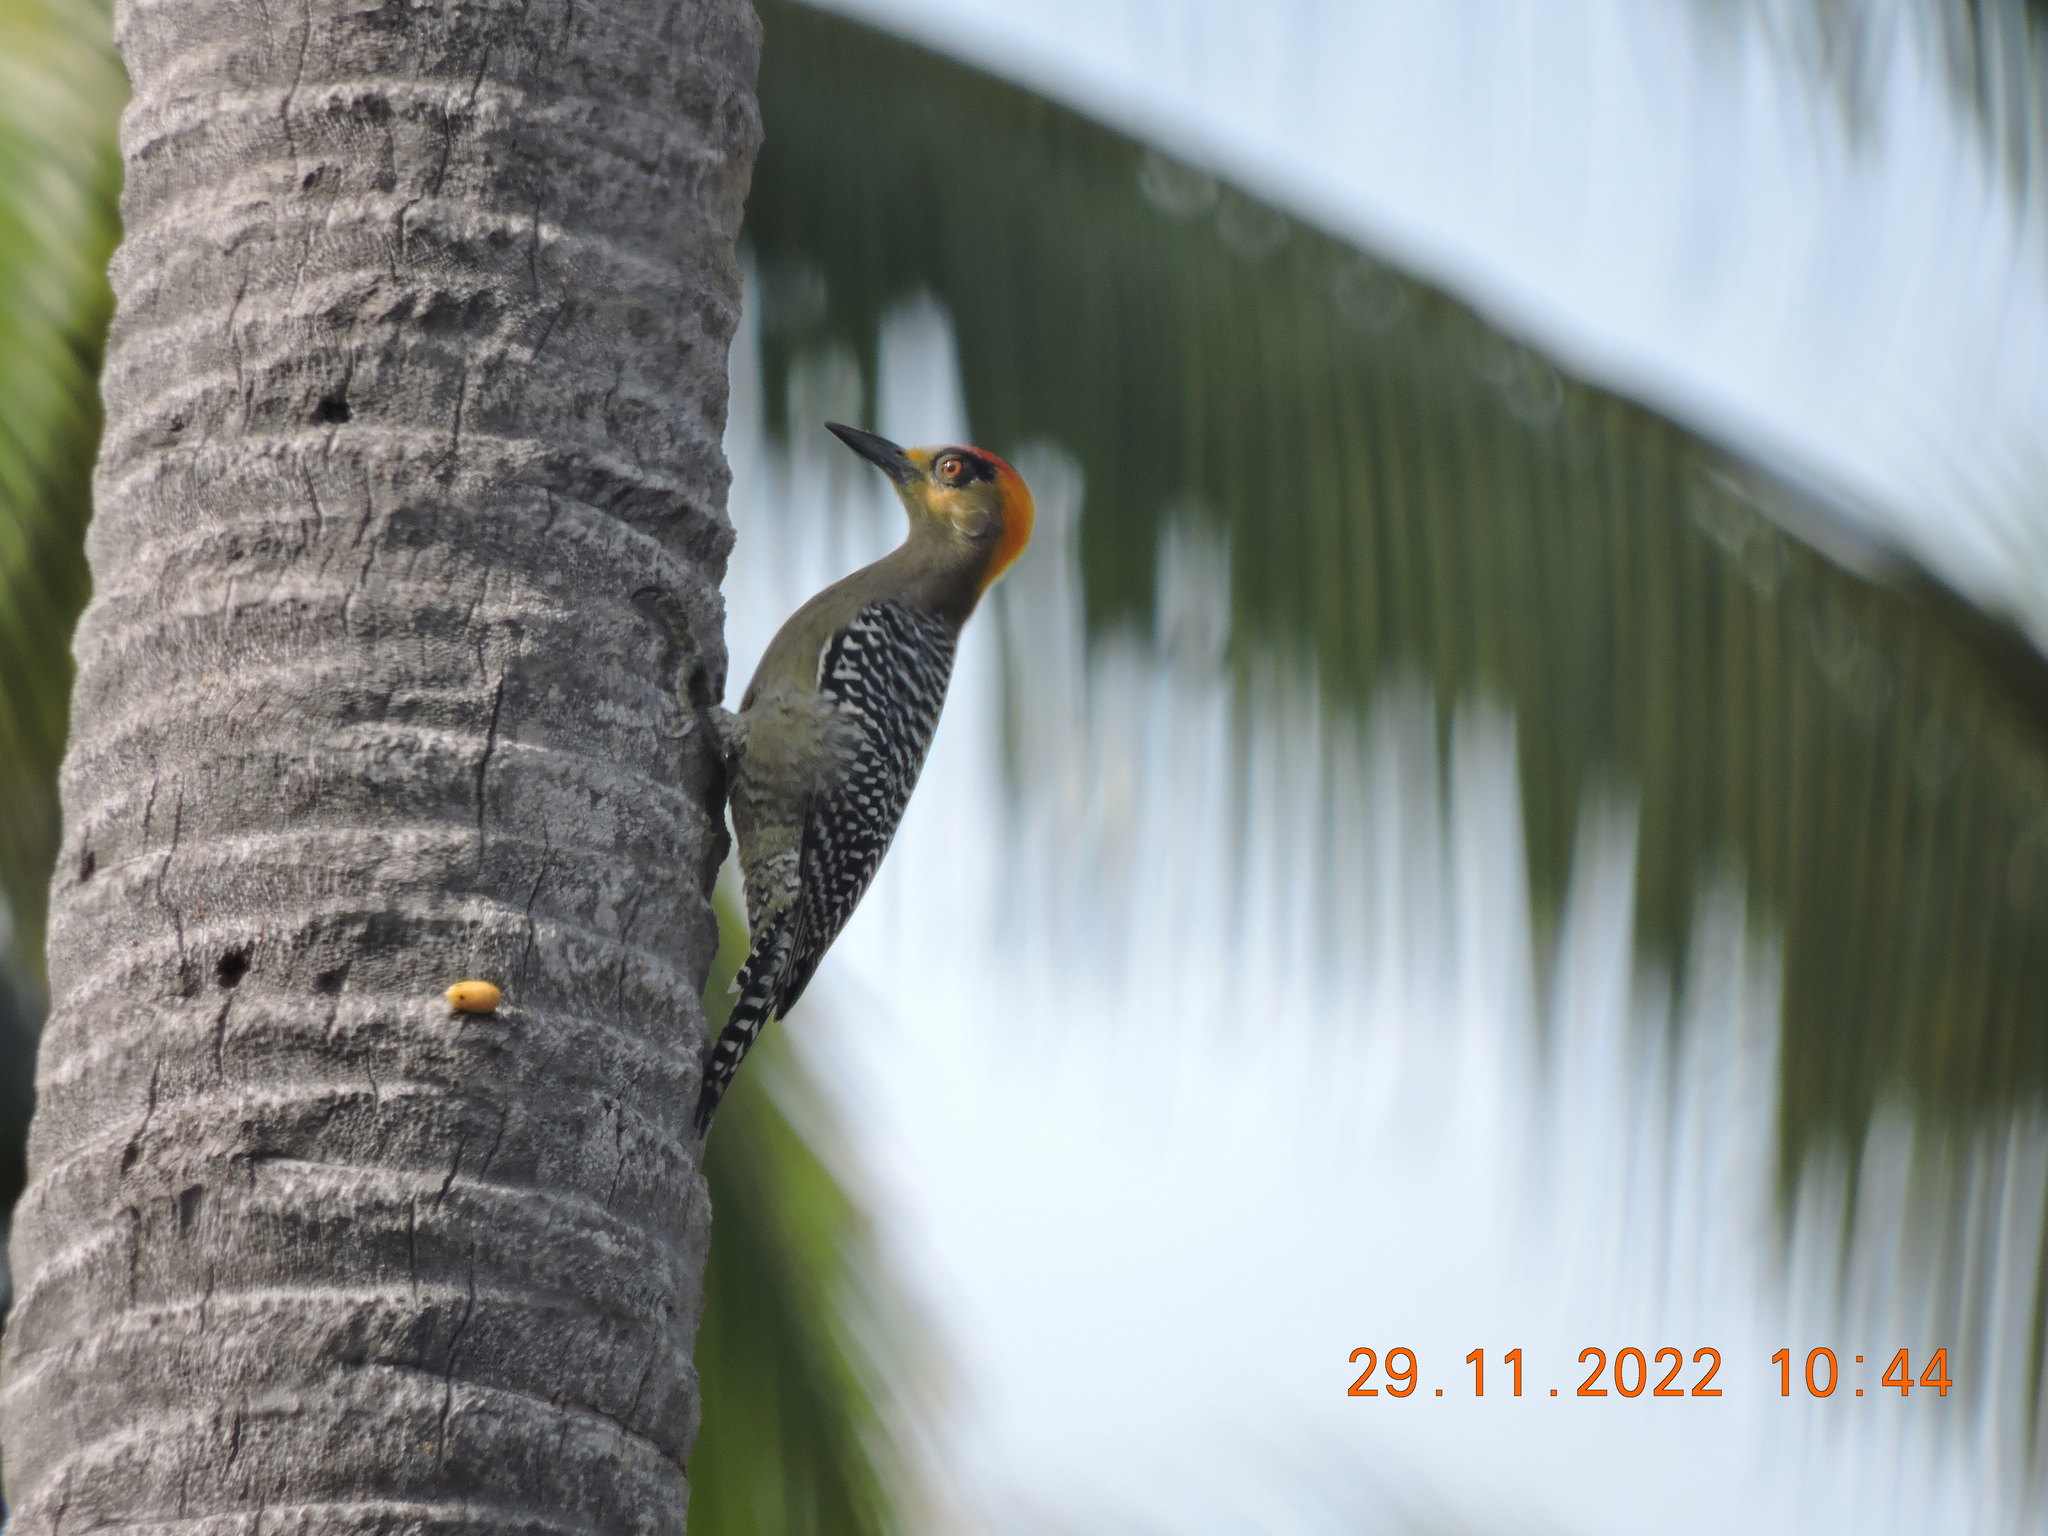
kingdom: Animalia
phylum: Chordata
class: Aves
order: Piciformes
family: Picidae
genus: Melanerpes
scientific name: Melanerpes chrysogenys
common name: Golden-cheeked woodpecker
